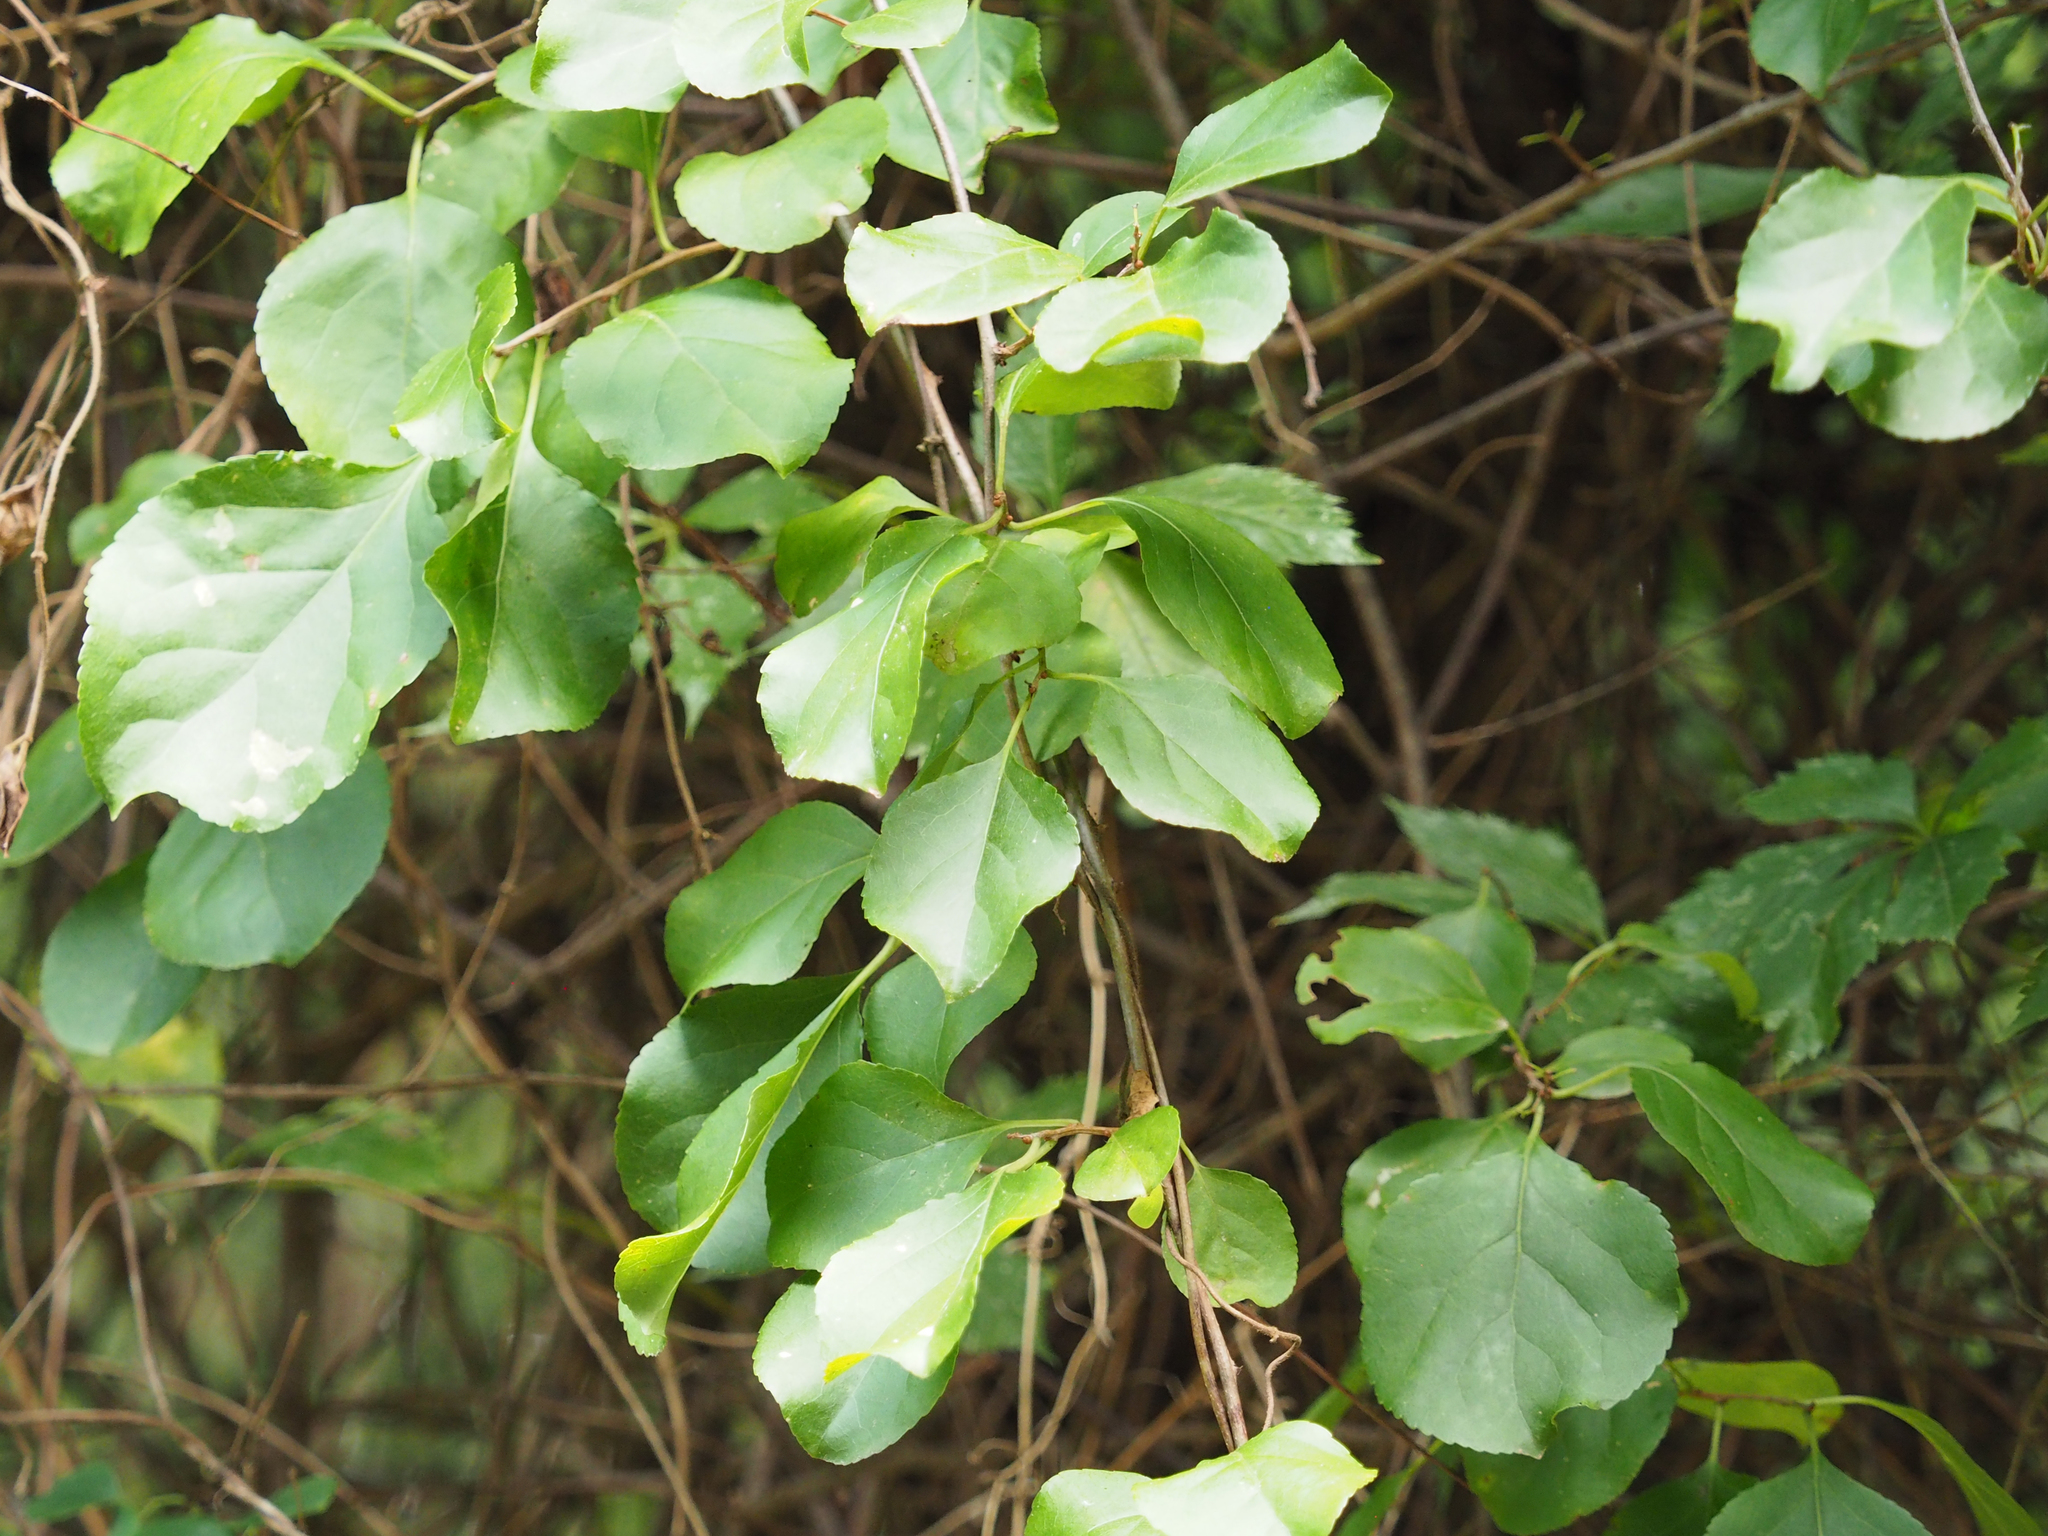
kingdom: Plantae
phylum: Tracheophyta
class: Magnoliopsida
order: Celastrales
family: Celastraceae
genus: Celastrus
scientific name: Celastrus orbiculatus
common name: Oriental bittersweet
